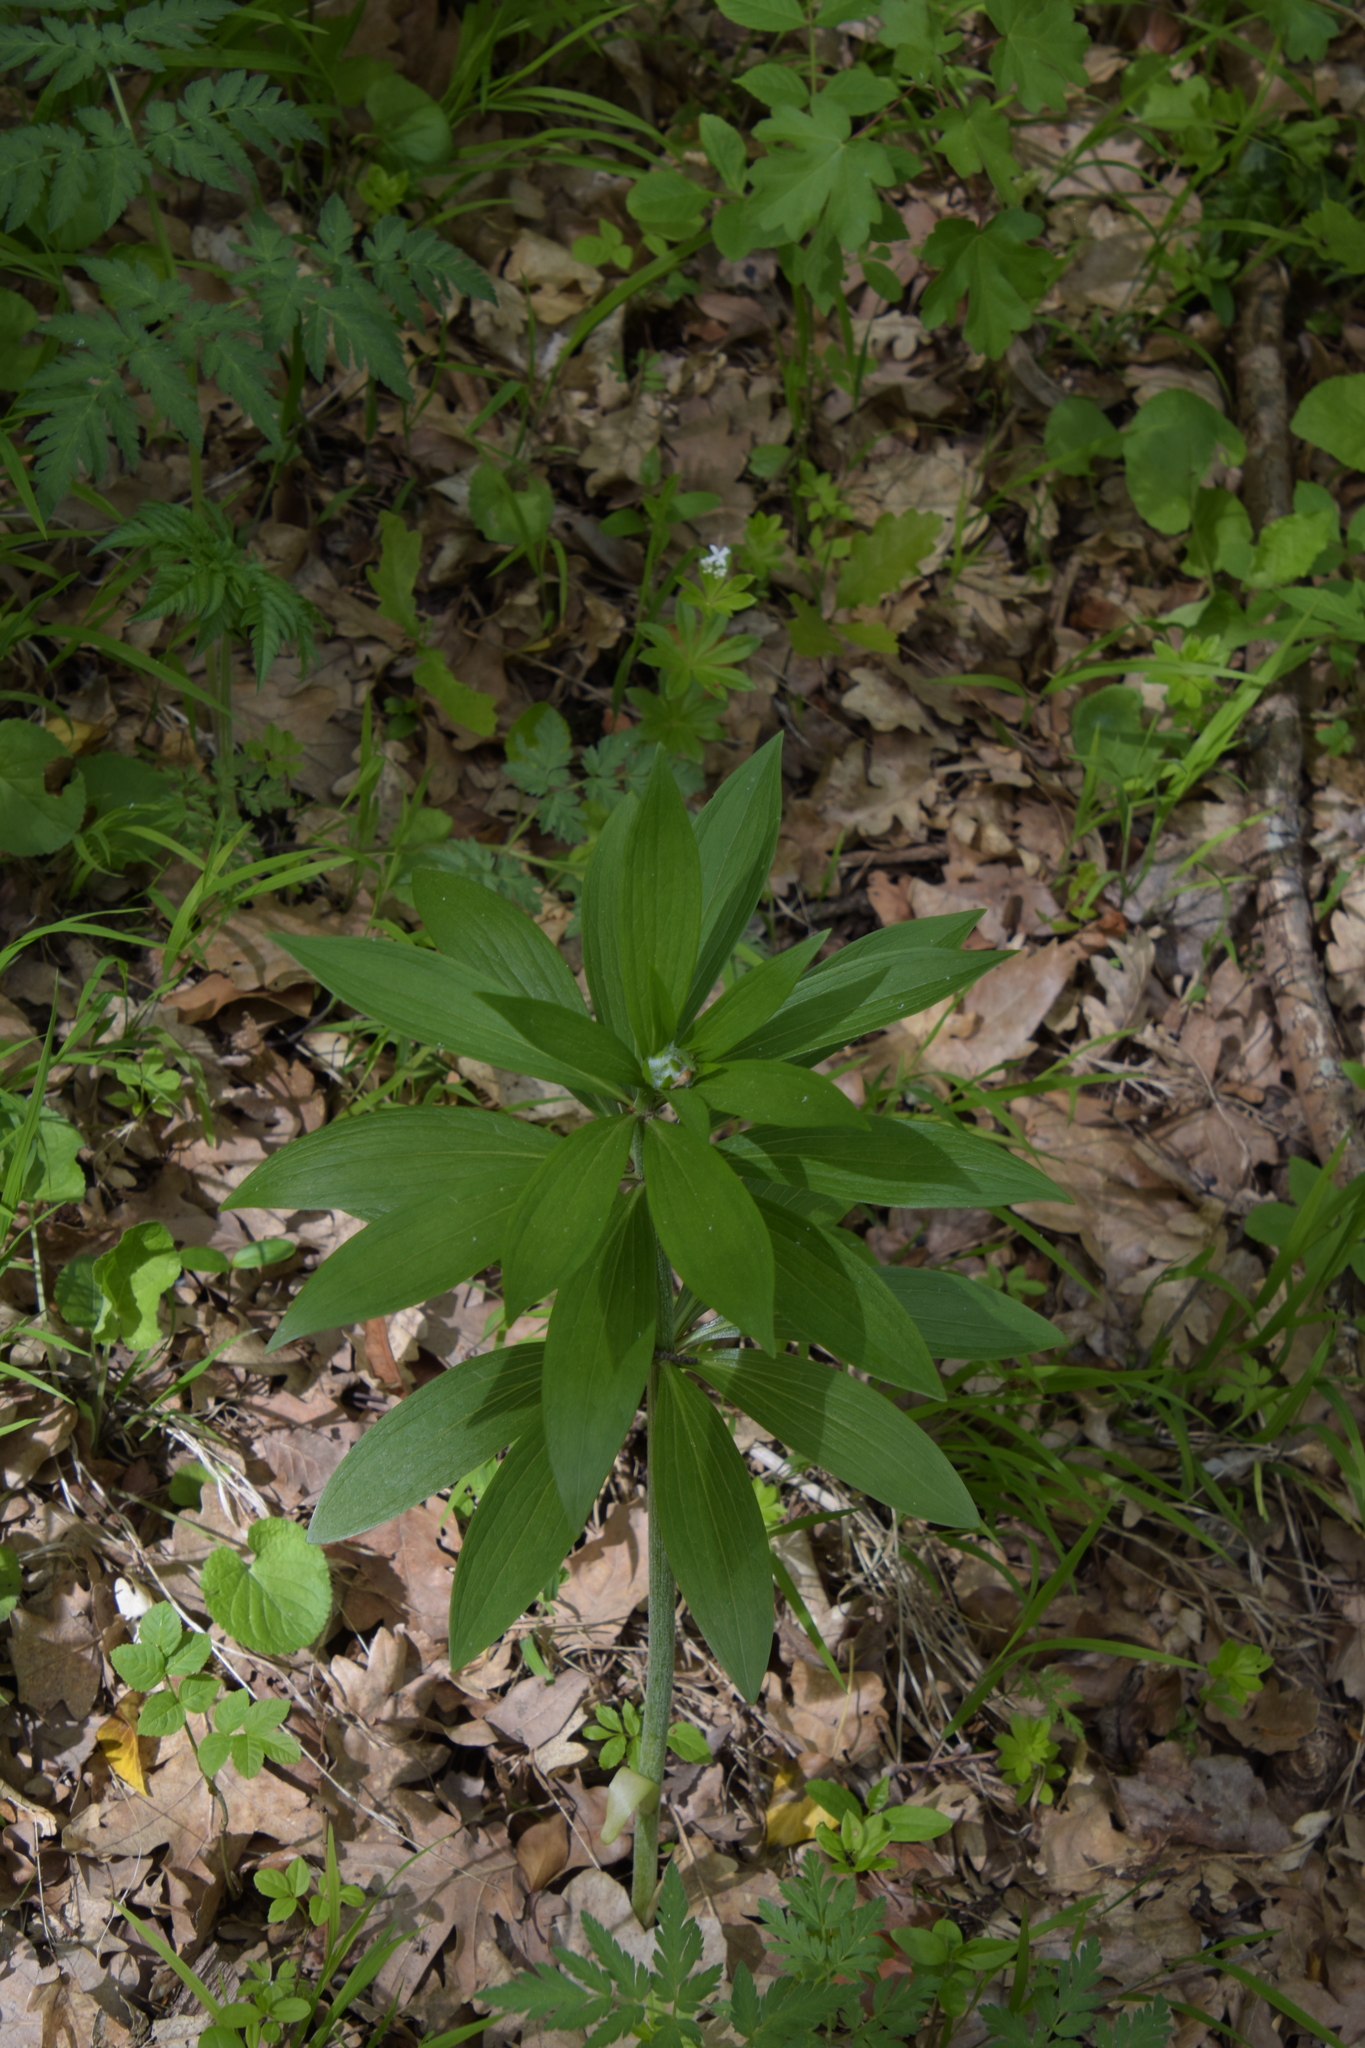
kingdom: Plantae
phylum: Tracheophyta
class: Liliopsida
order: Liliales
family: Liliaceae
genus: Lilium
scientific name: Lilium martagon
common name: Martagon lily
